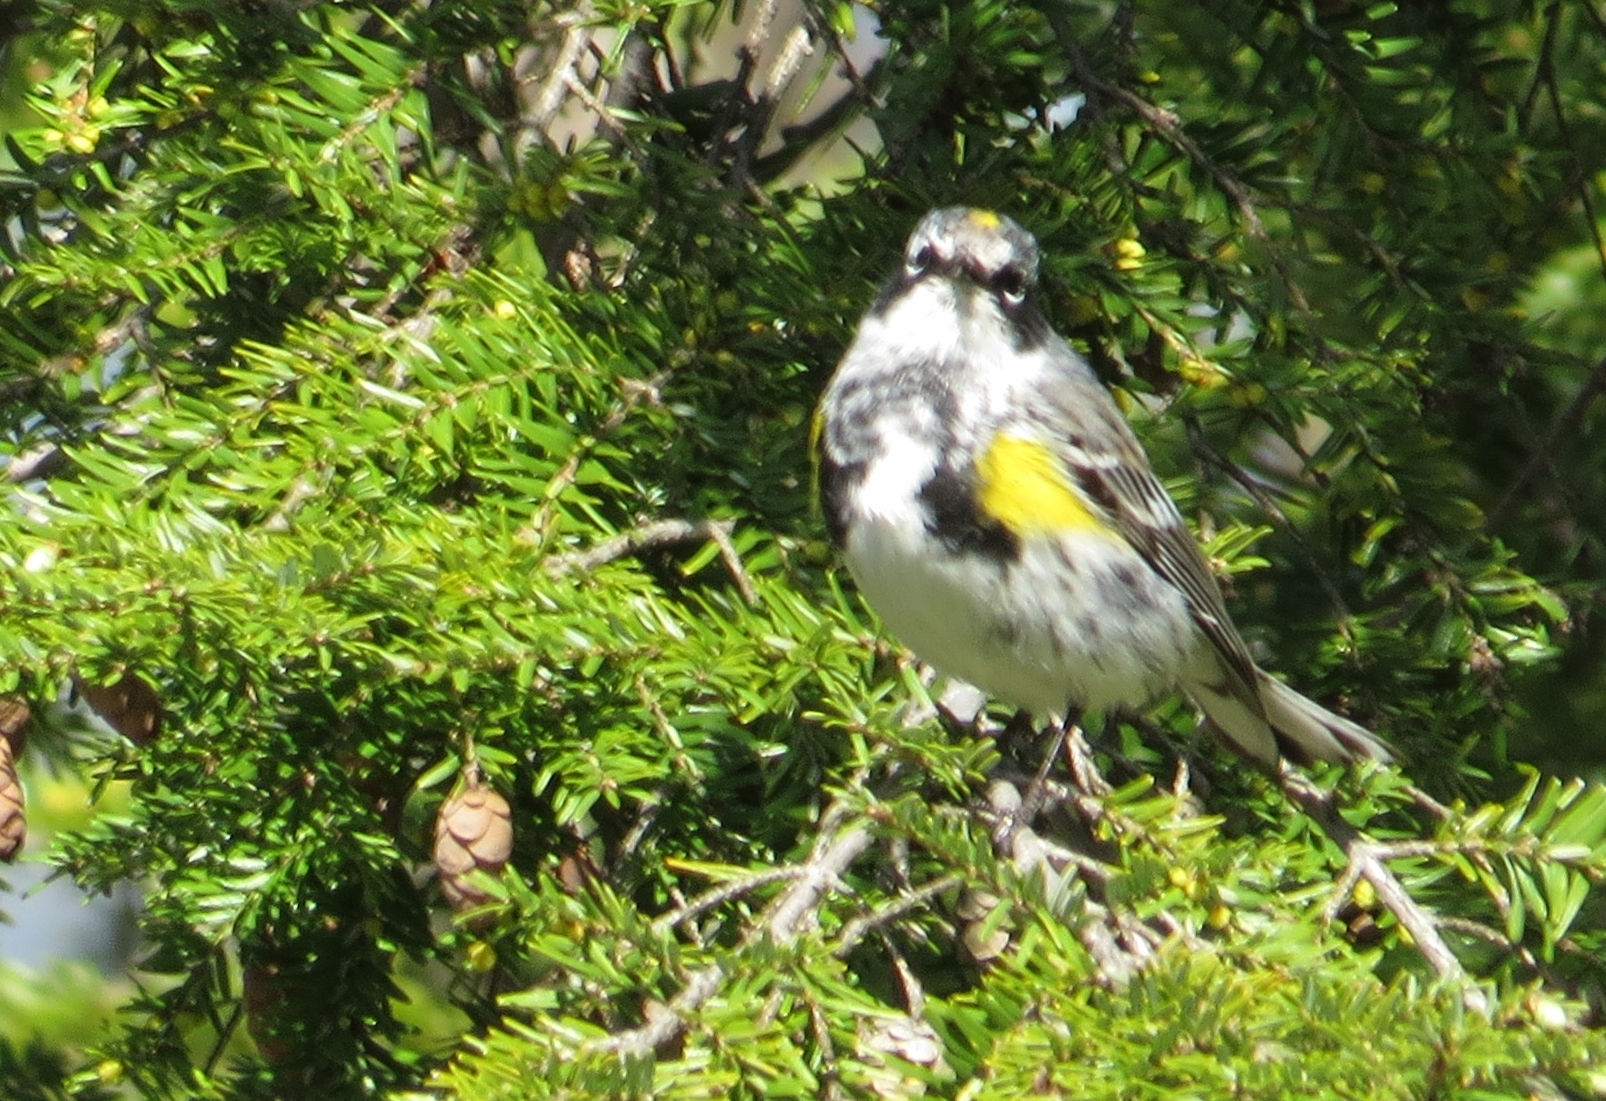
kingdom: Animalia
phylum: Chordata
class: Aves
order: Passeriformes
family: Parulidae
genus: Setophaga
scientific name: Setophaga coronata
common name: Myrtle warbler
